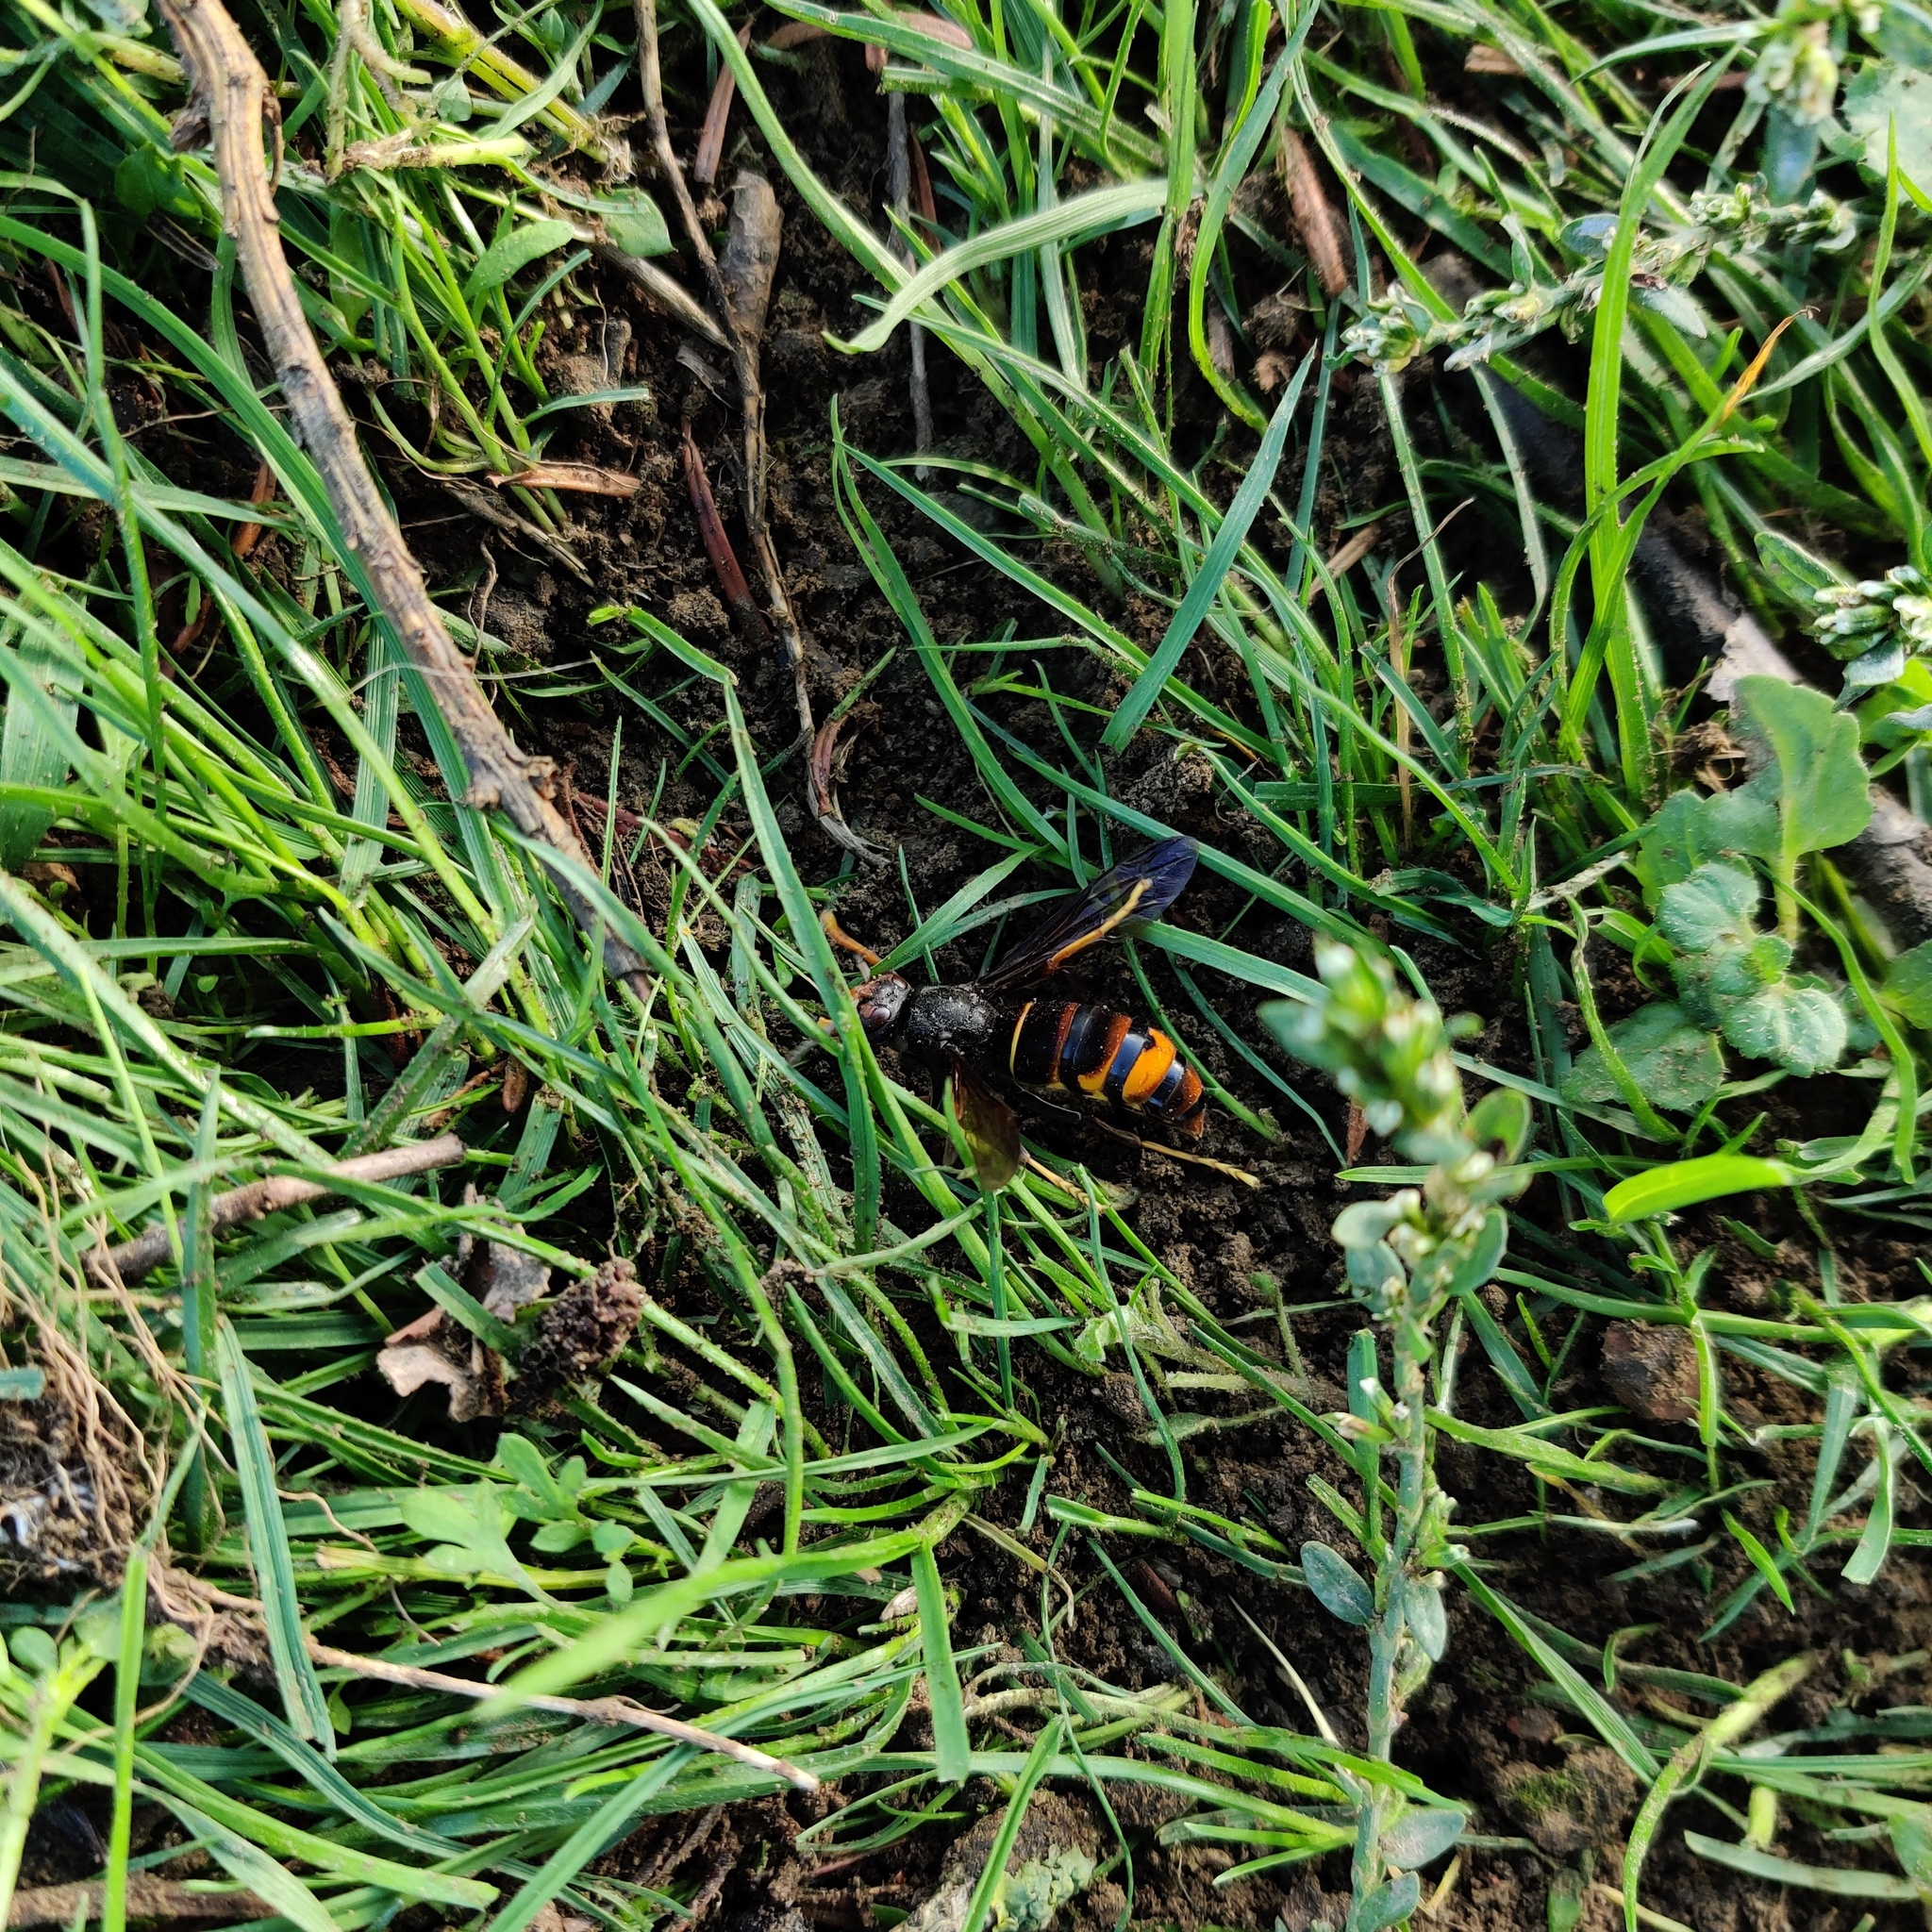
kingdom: Animalia
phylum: Arthropoda
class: Insecta
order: Hymenoptera
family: Vespidae
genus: Vespa
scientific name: Vespa velutina
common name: Asian hornet
